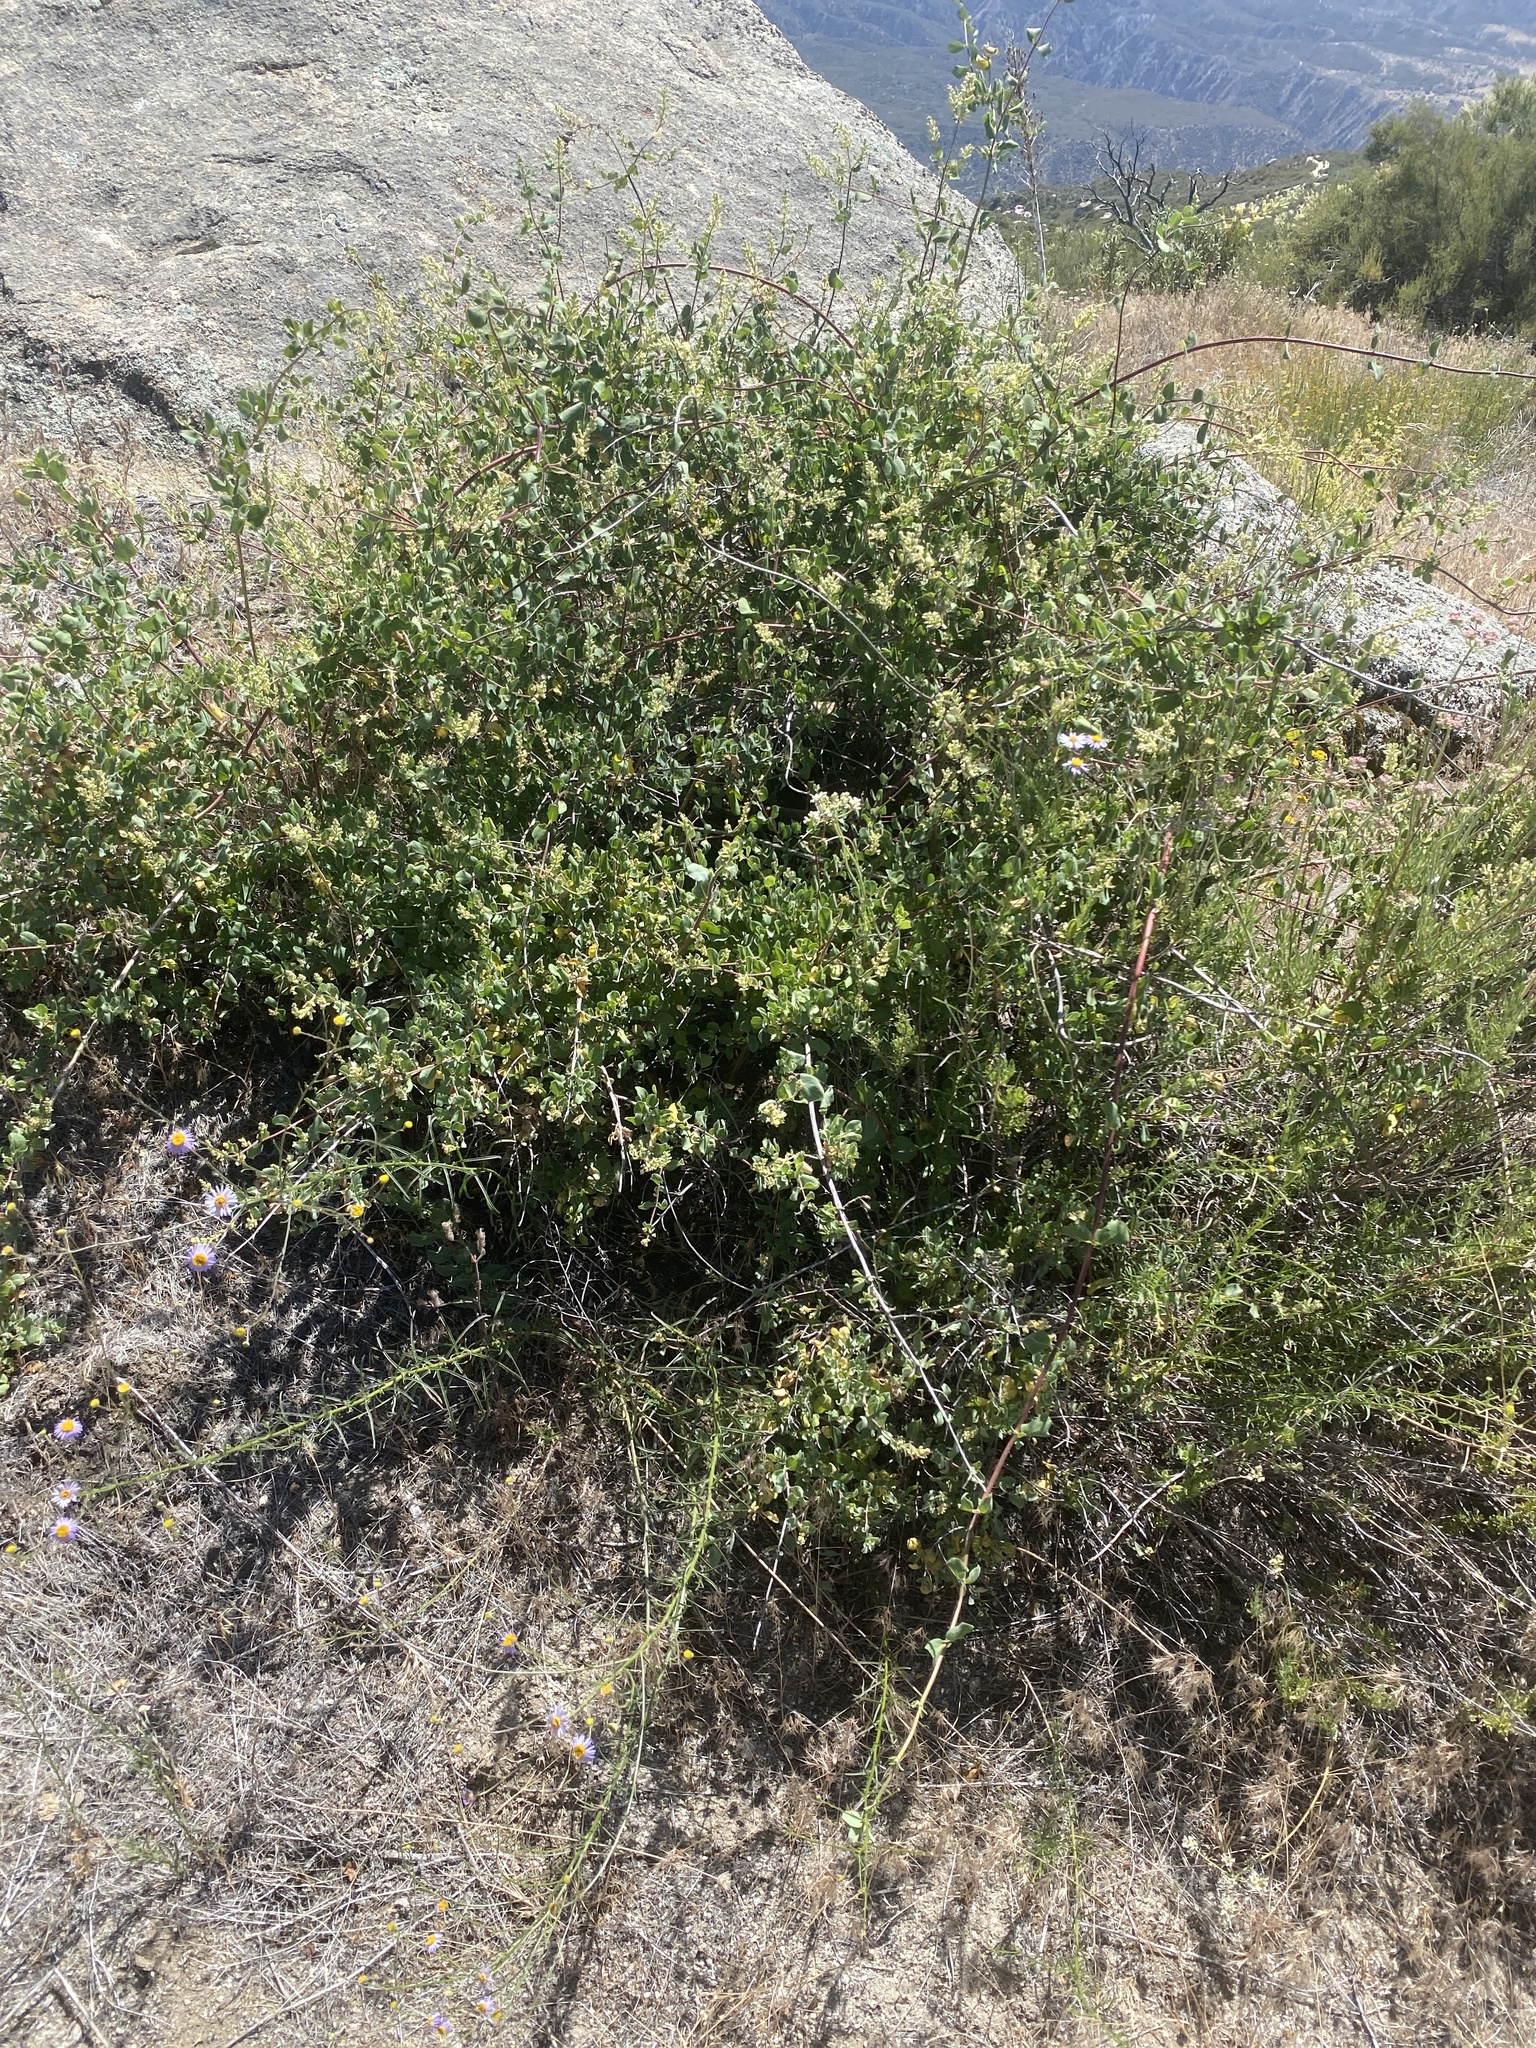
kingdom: Plantae
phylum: Tracheophyta
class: Magnoliopsida
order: Dipsacales
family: Caprifoliaceae
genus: Lonicera
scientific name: Lonicera subspicata
